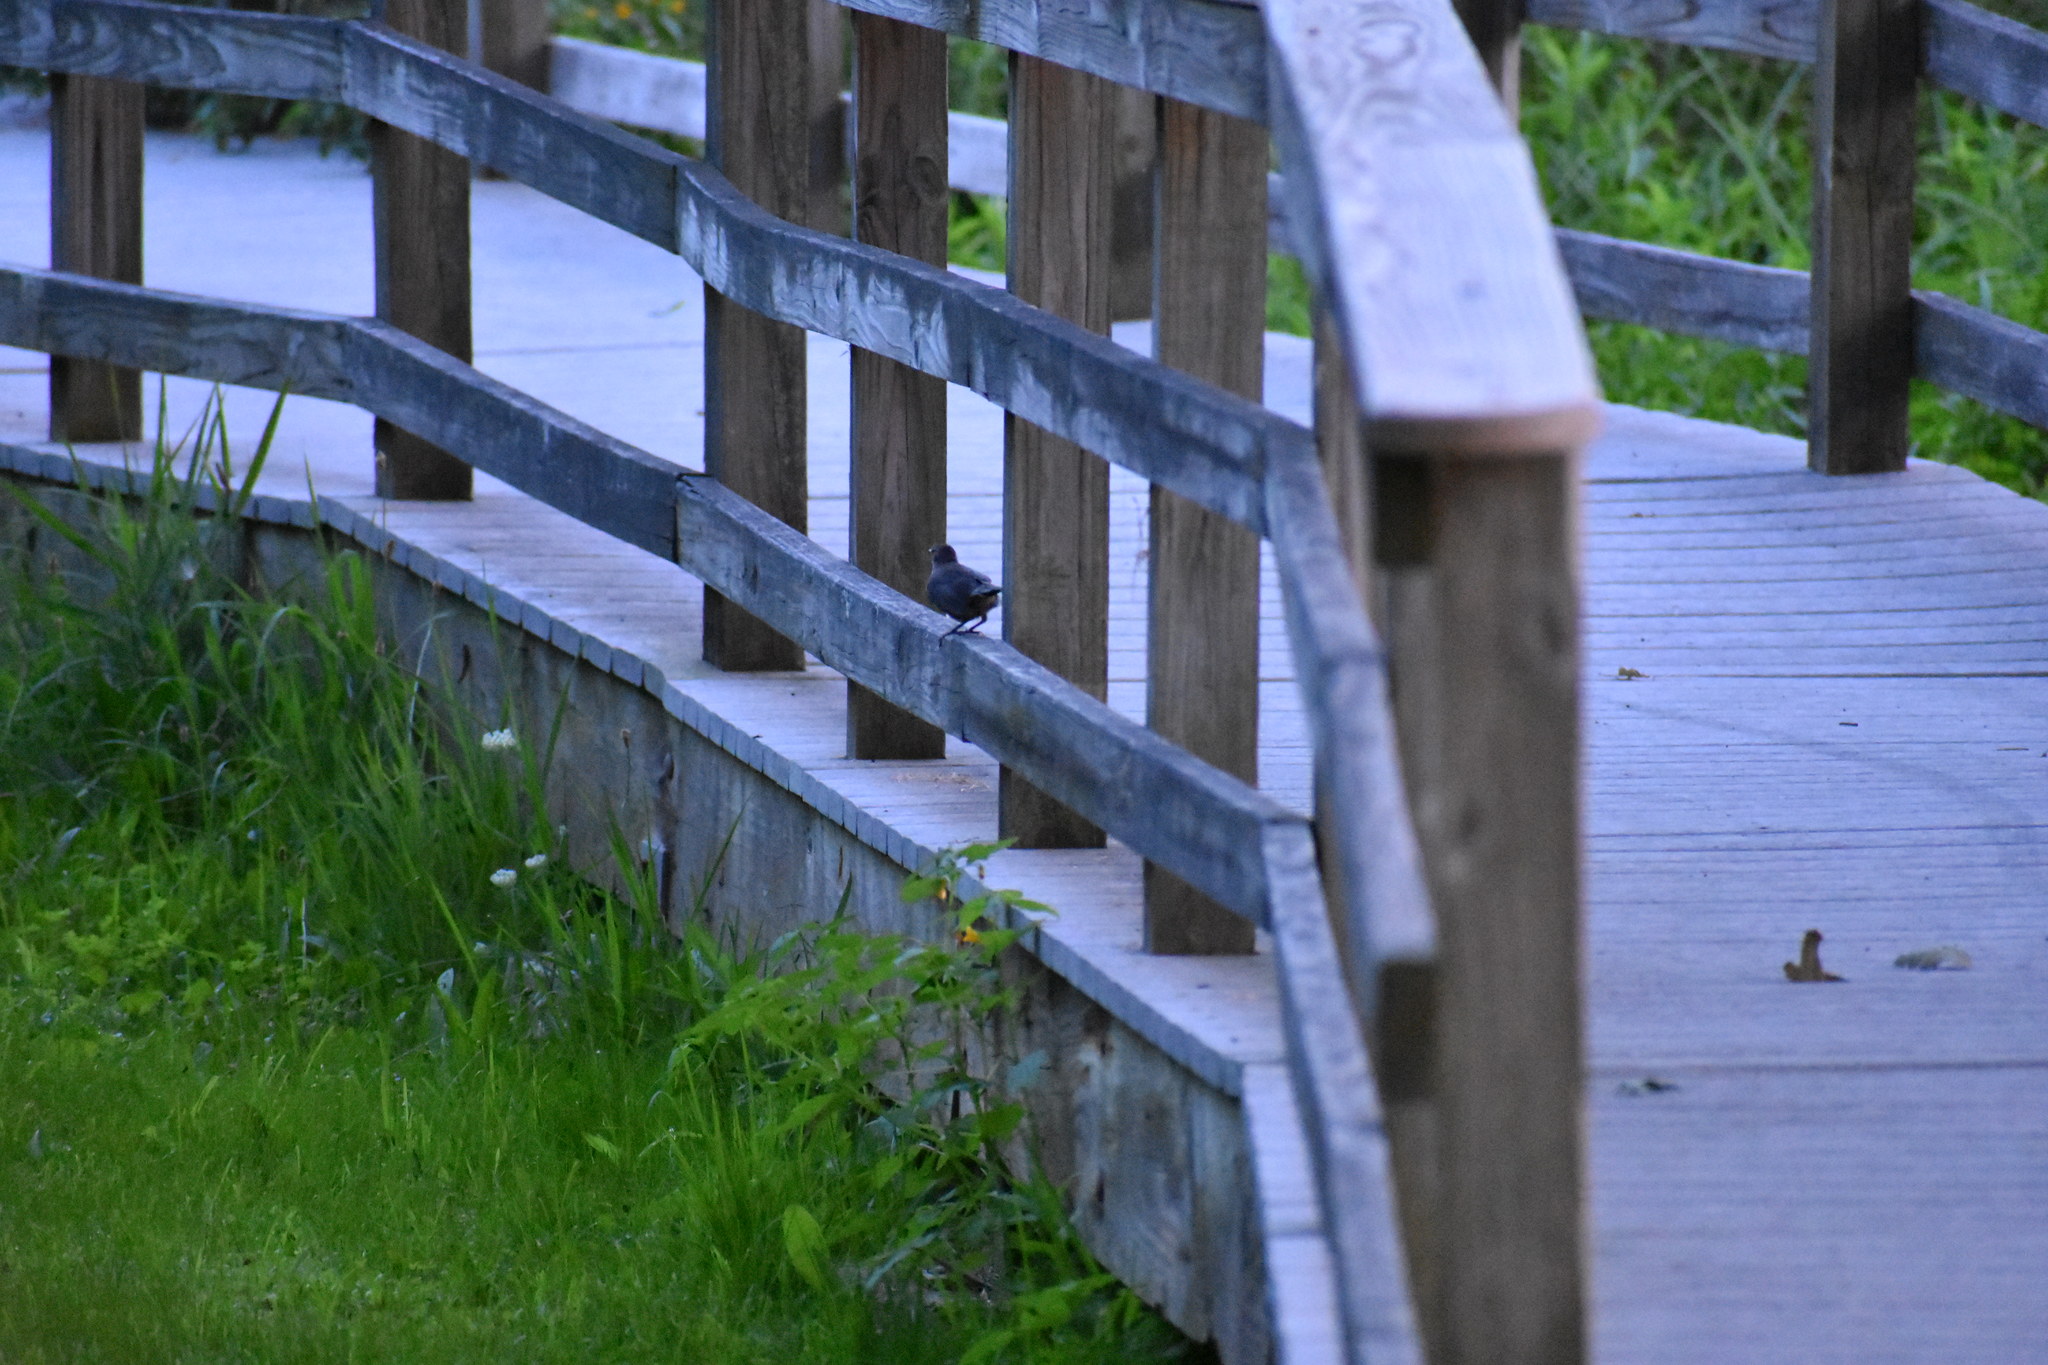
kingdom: Animalia
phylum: Chordata
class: Aves
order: Passeriformes
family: Mimidae
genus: Dumetella
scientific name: Dumetella carolinensis
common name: Gray catbird
